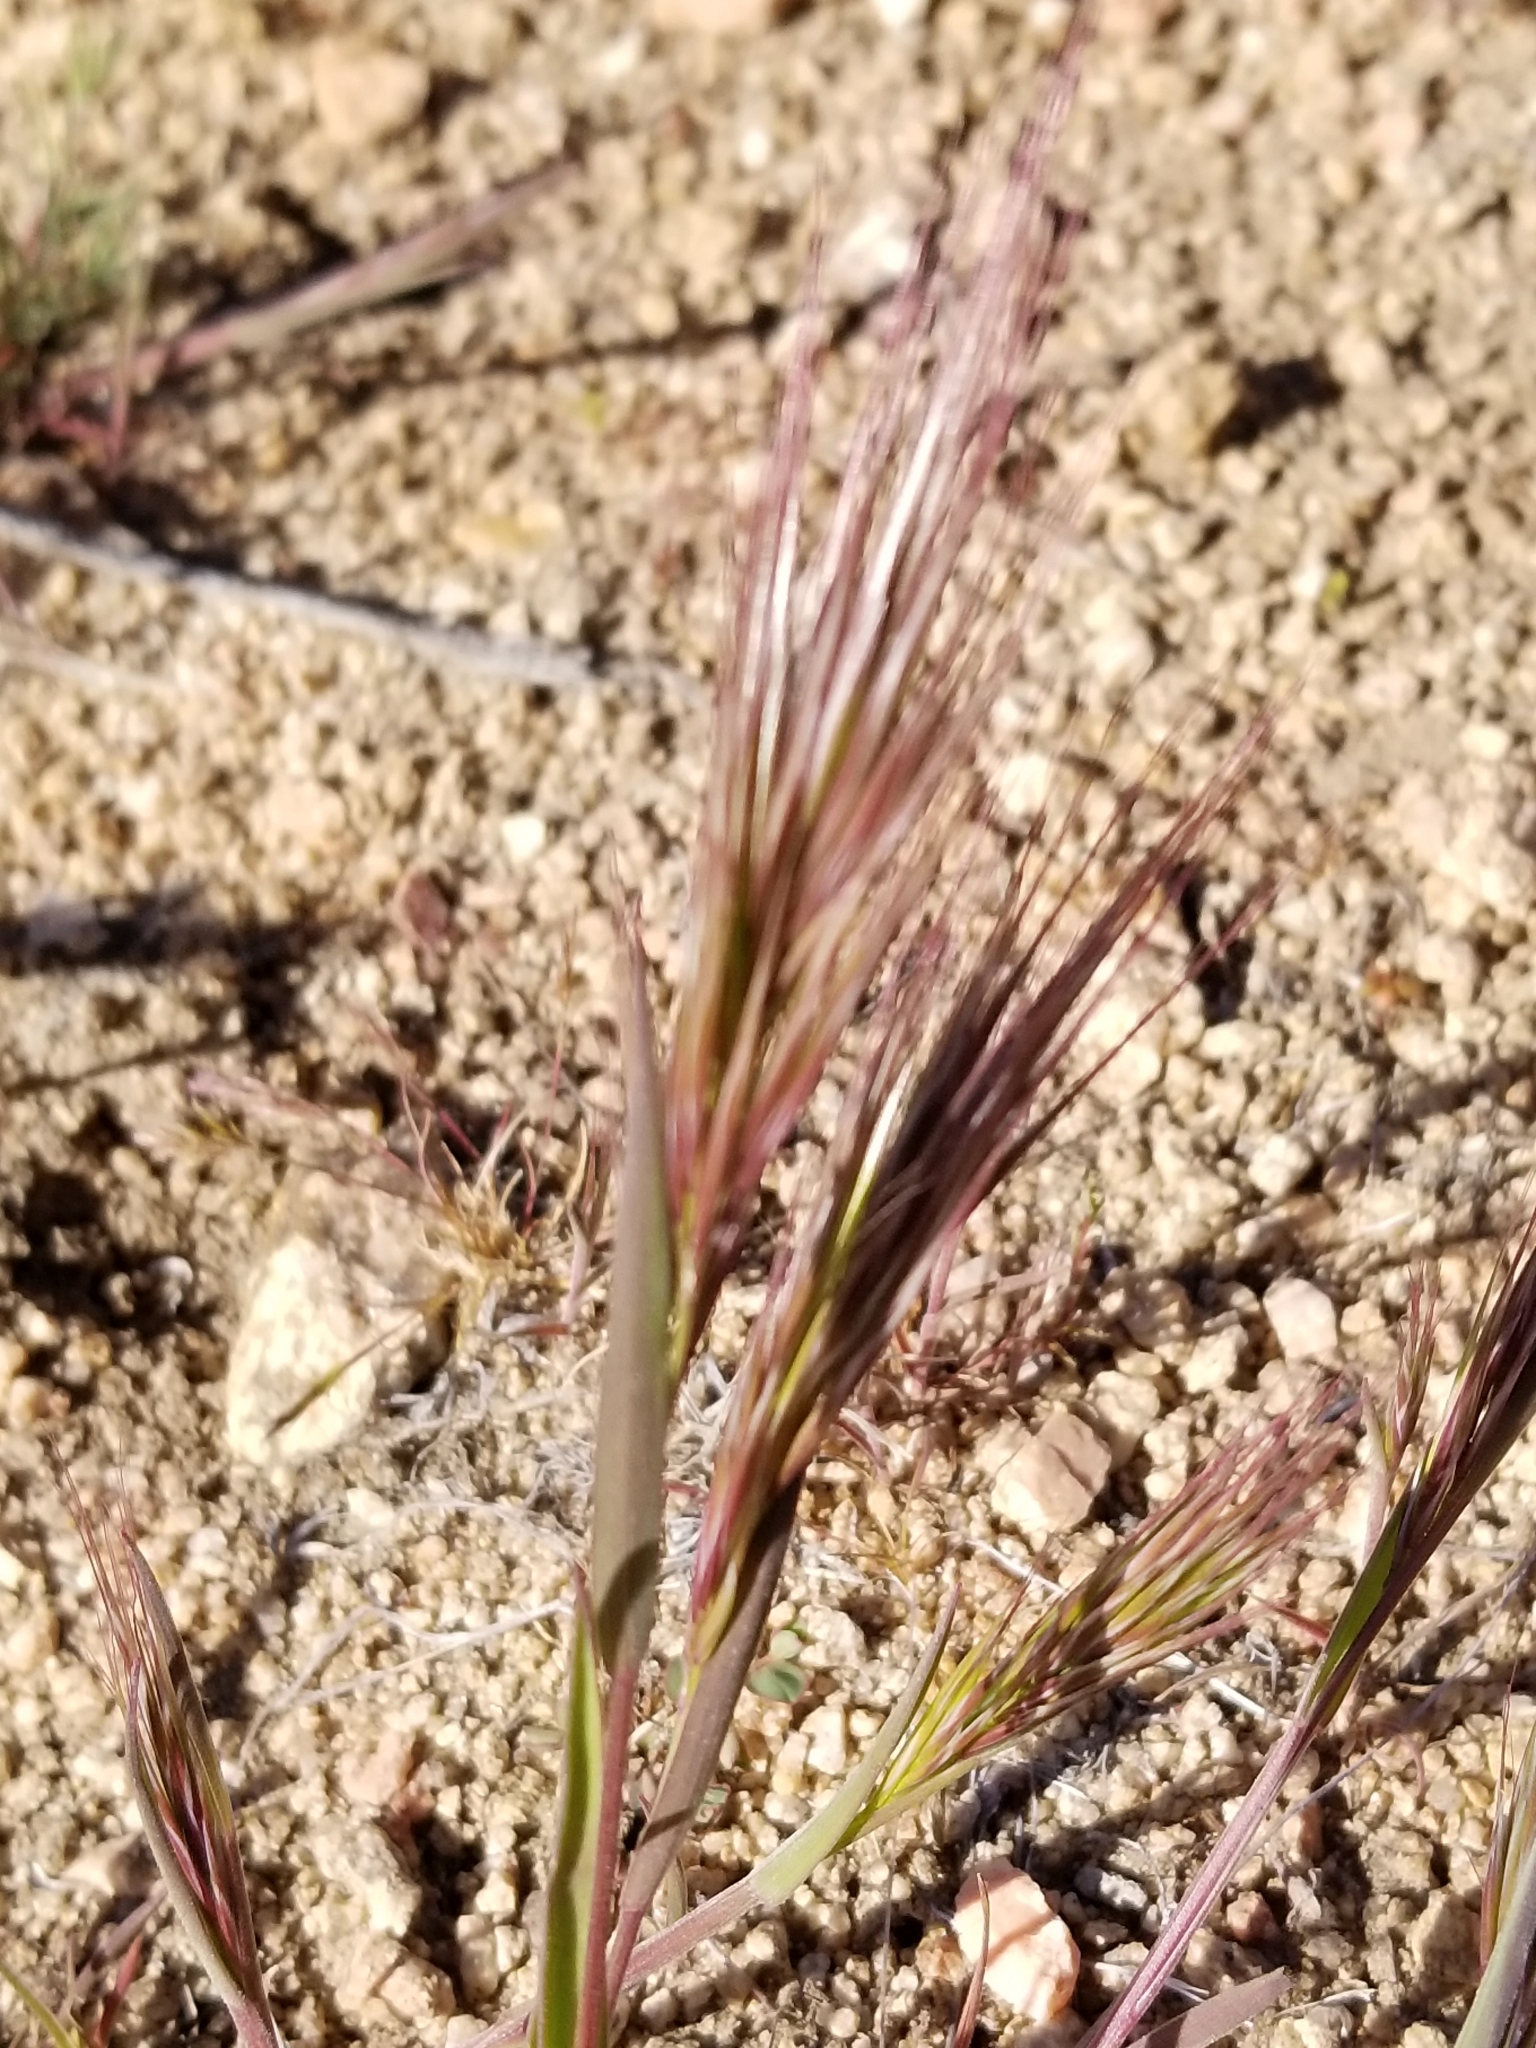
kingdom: Plantae
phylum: Tracheophyta
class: Liliopsida
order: Poales
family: Poaceae
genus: Bromus
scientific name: Bromus rubens
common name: Red brome
